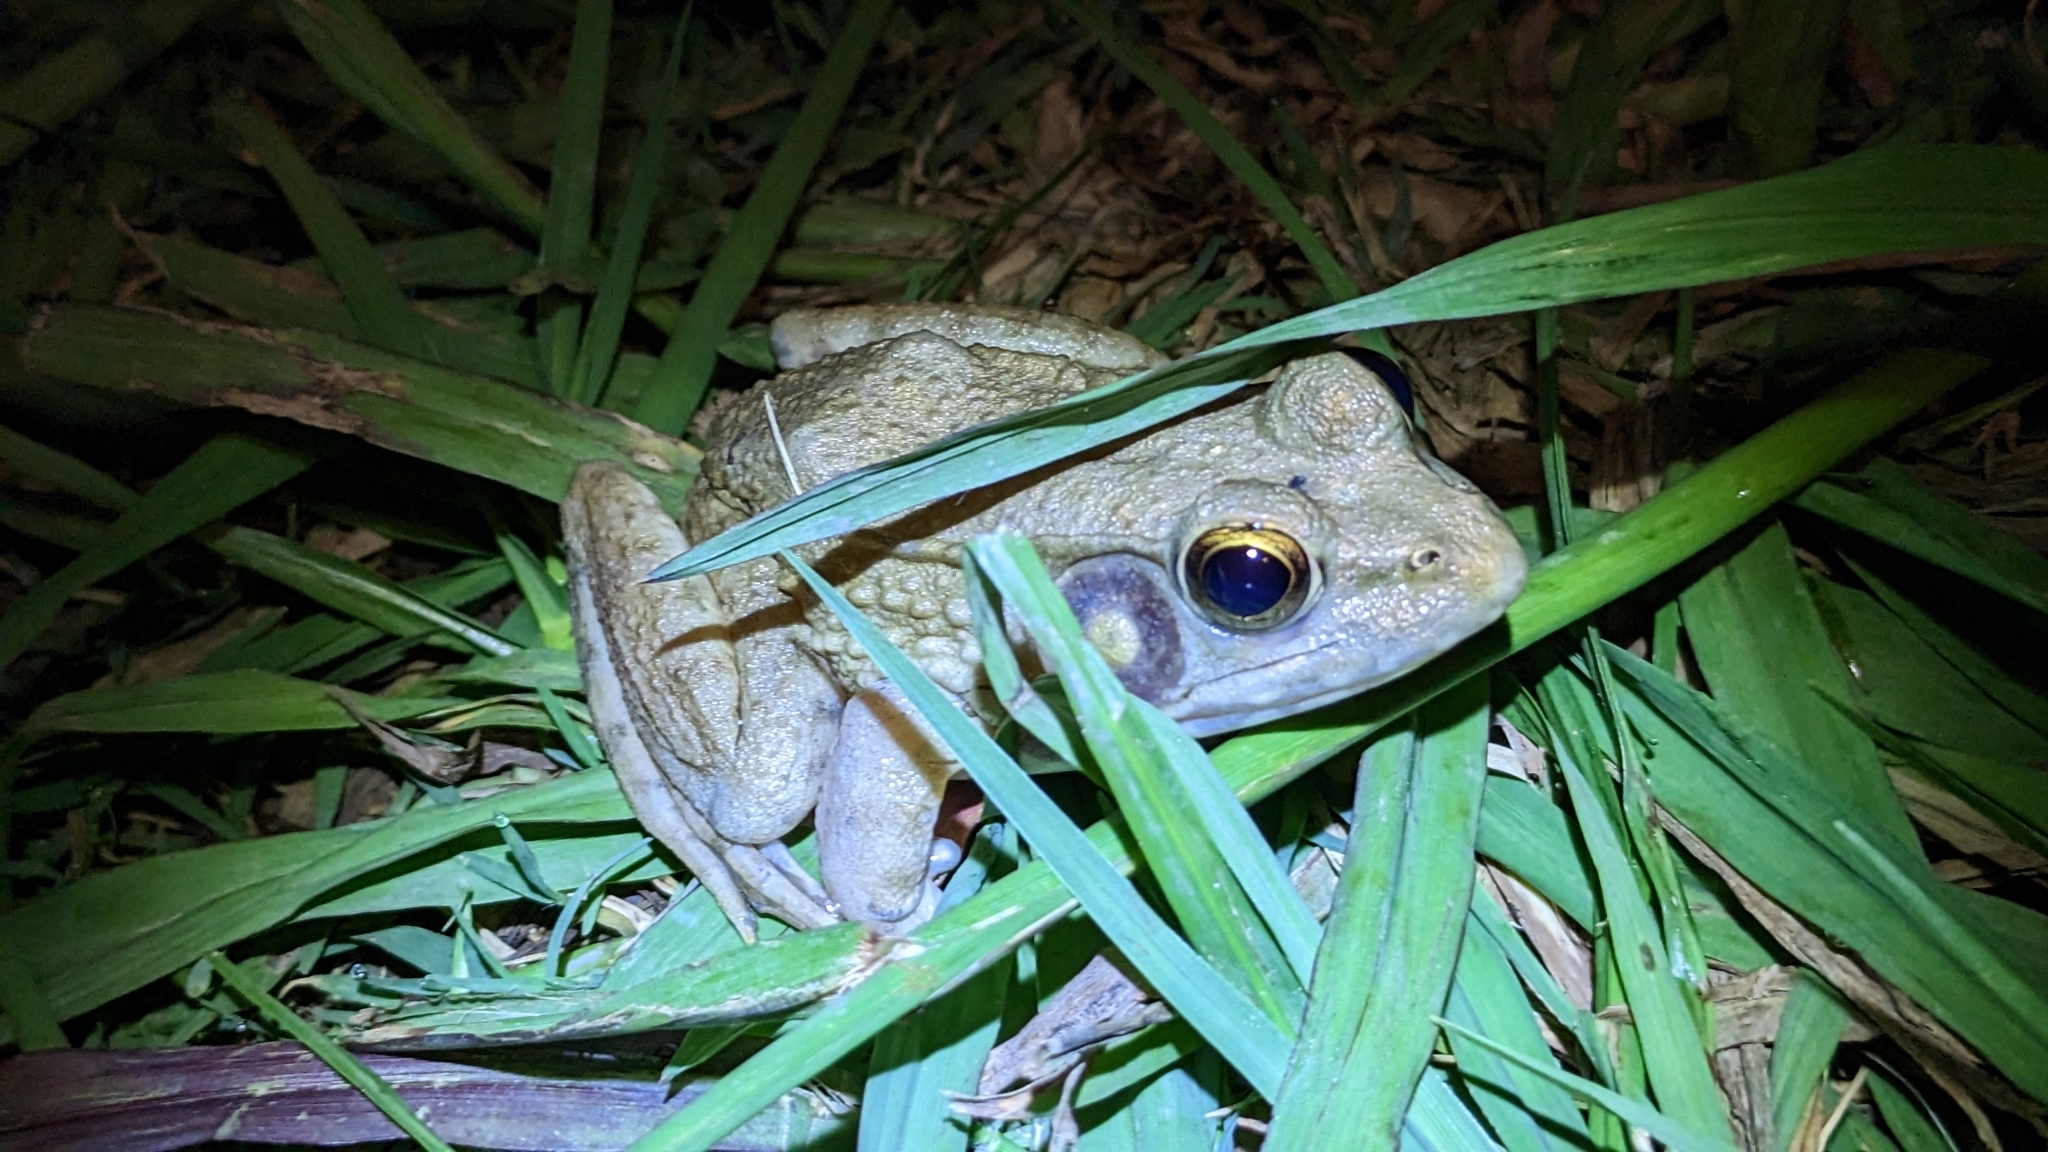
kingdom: Animalia
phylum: Chordata
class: Amphibia
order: Anura
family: Ranidae
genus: Lithobates
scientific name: Lithobates clamitans
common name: Green frog
